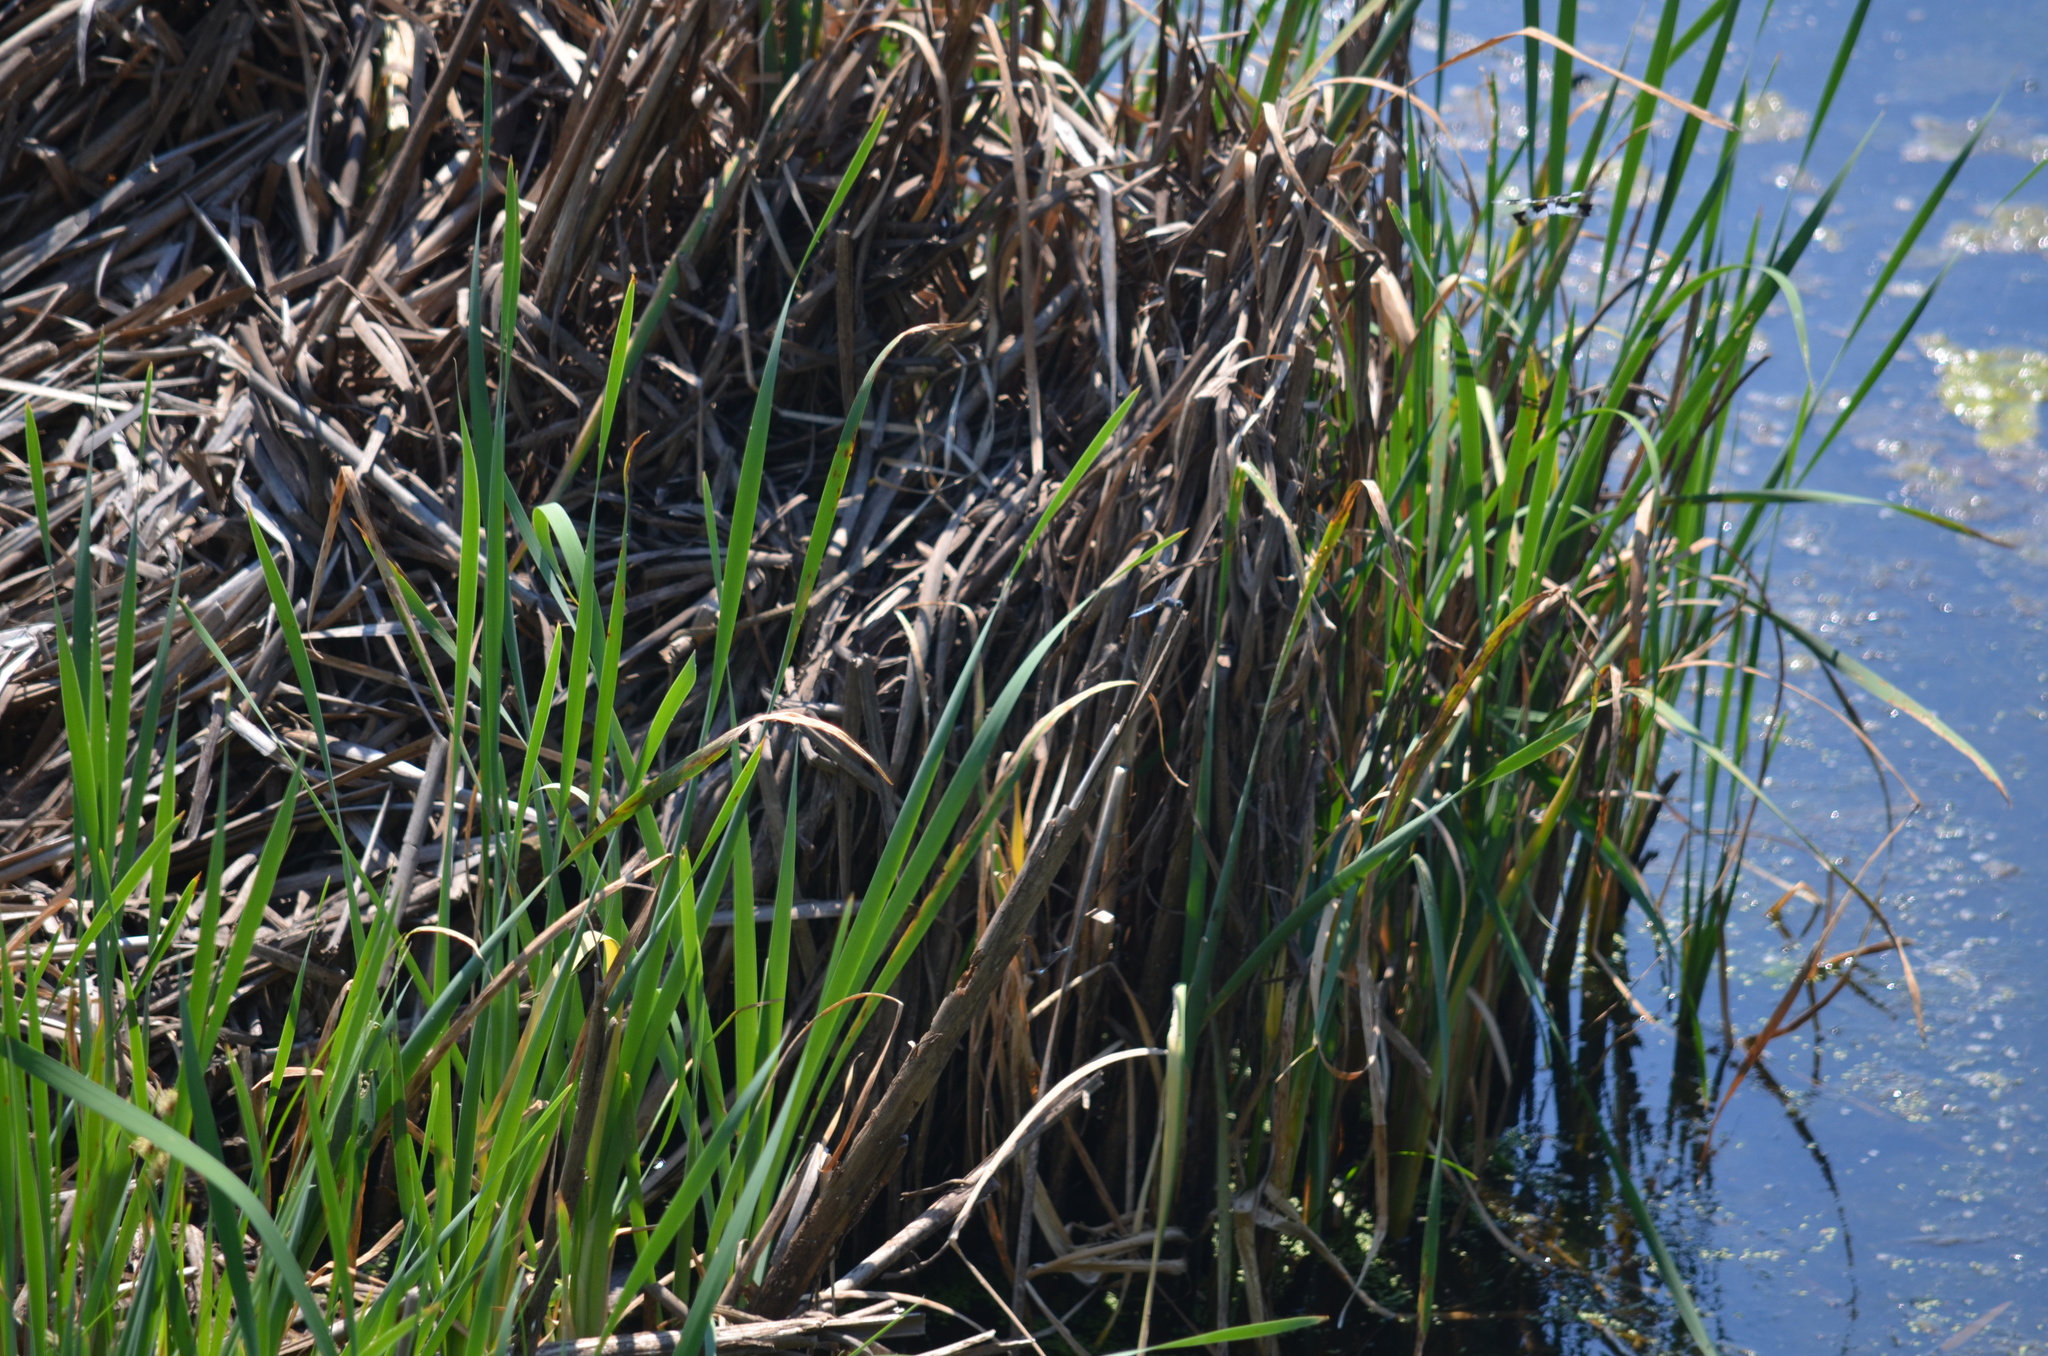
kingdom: Animalia
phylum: Arthropoda
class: Insecta
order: Odonata
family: Libellulidae
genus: Libellula
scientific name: Libellula forensis
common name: Eight-spotted skimmer
